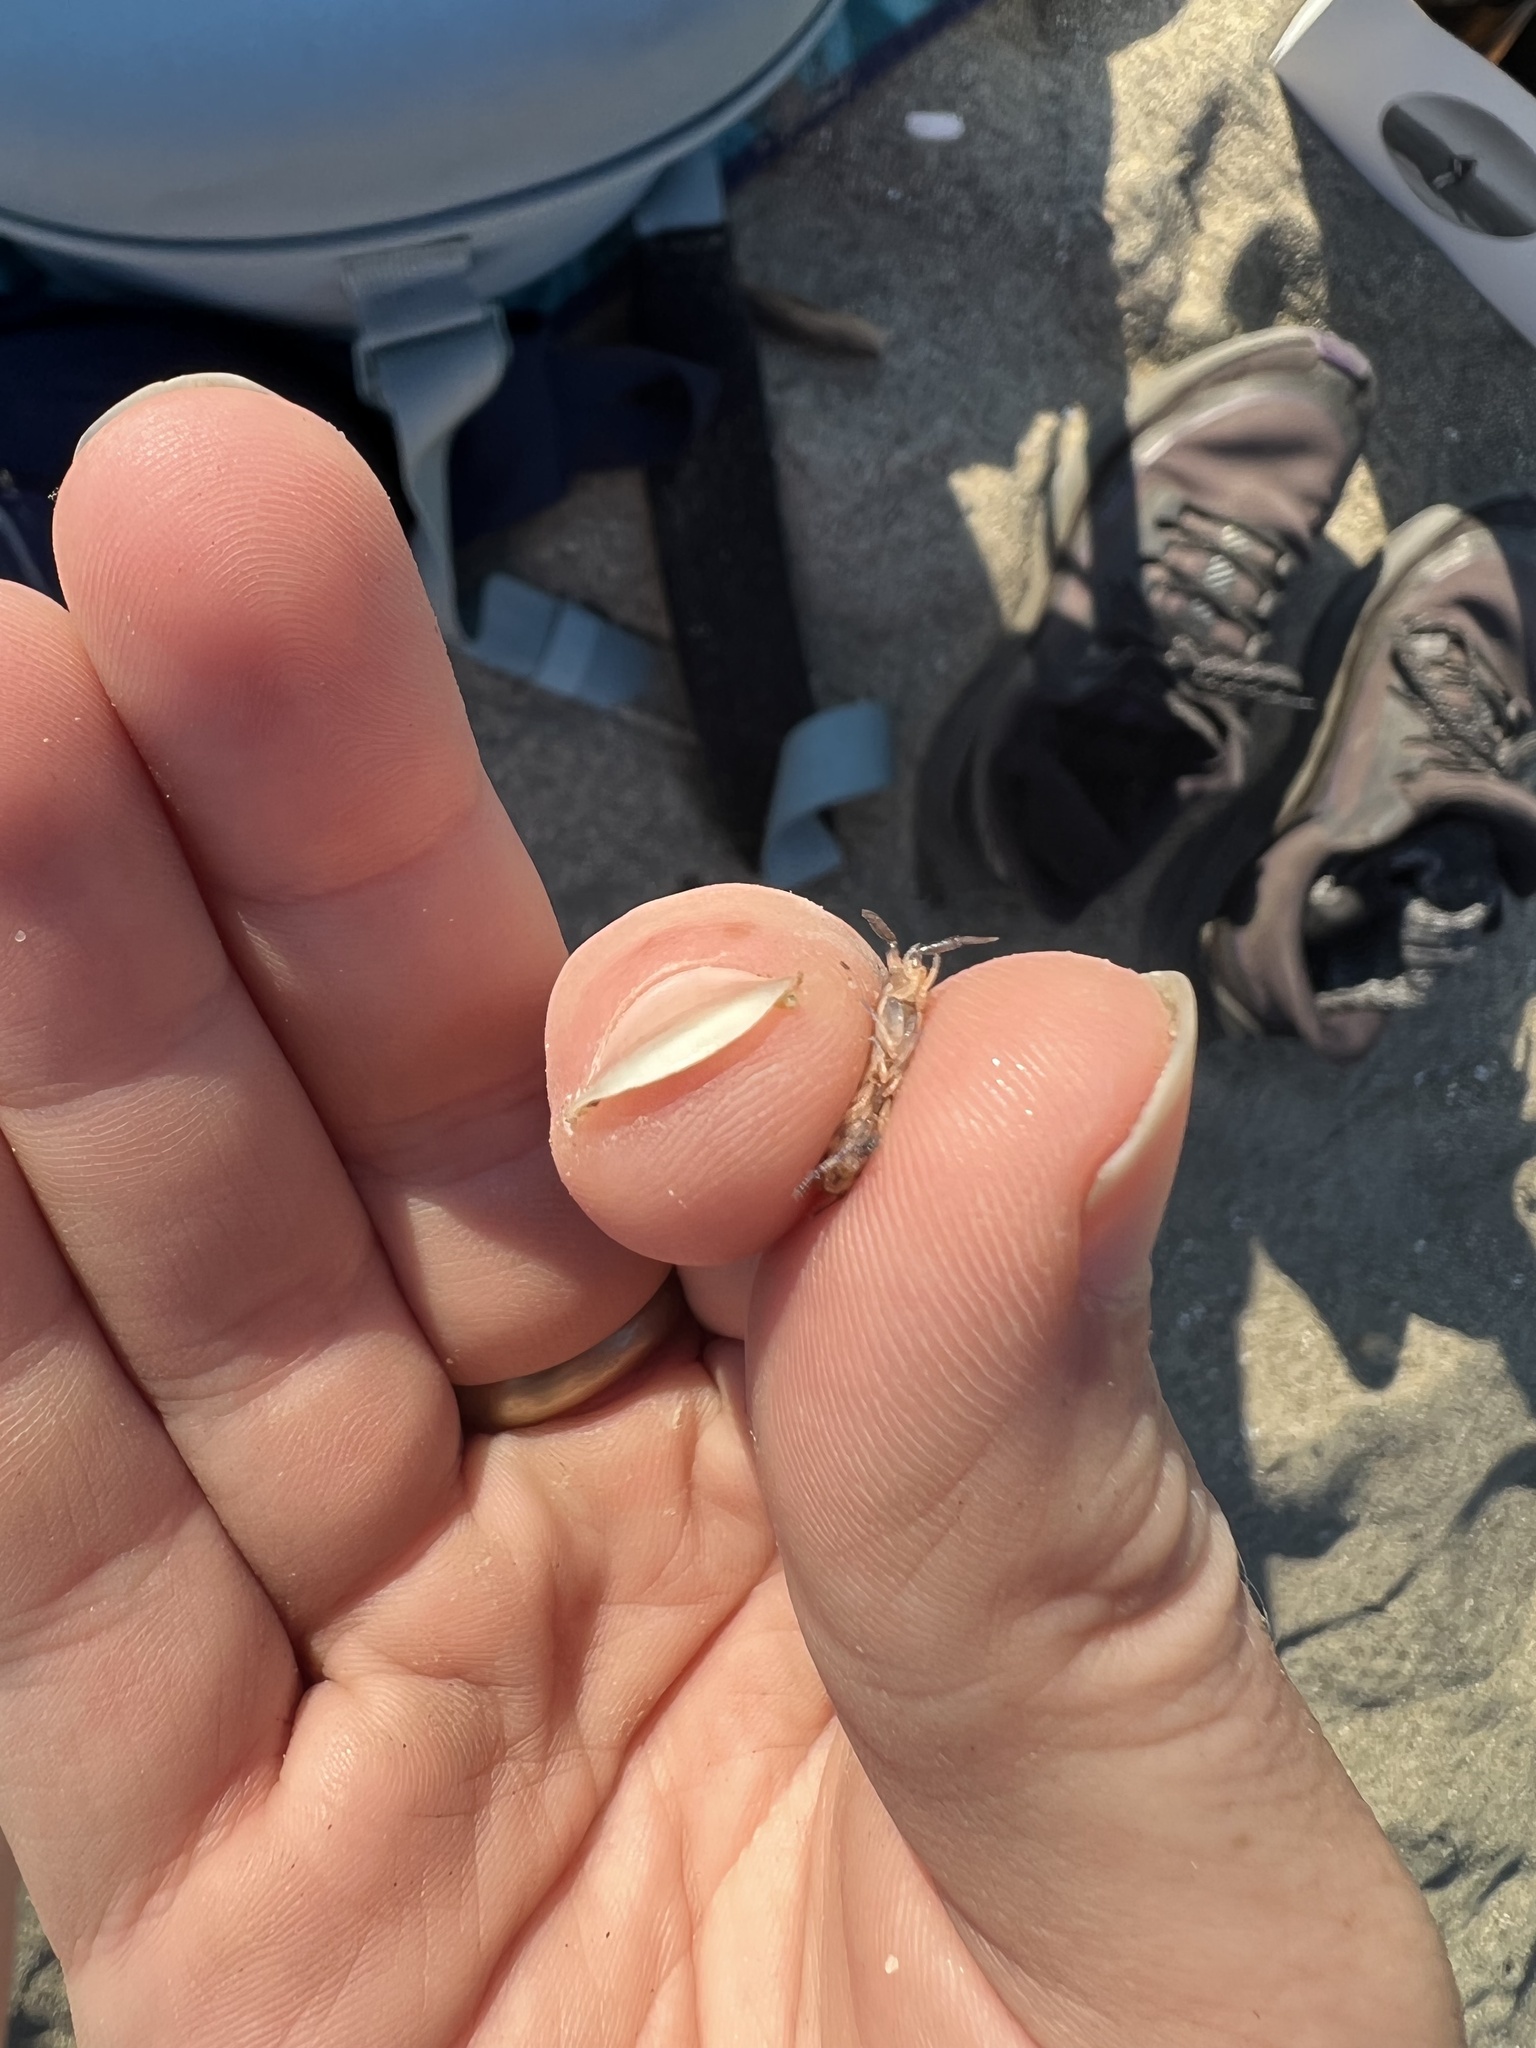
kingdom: Animalia
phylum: Arthropoda
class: Malacostraca
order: Amphipoda
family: Talitridae
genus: Megalorchestia
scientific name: Megalorchestia pugettensis
